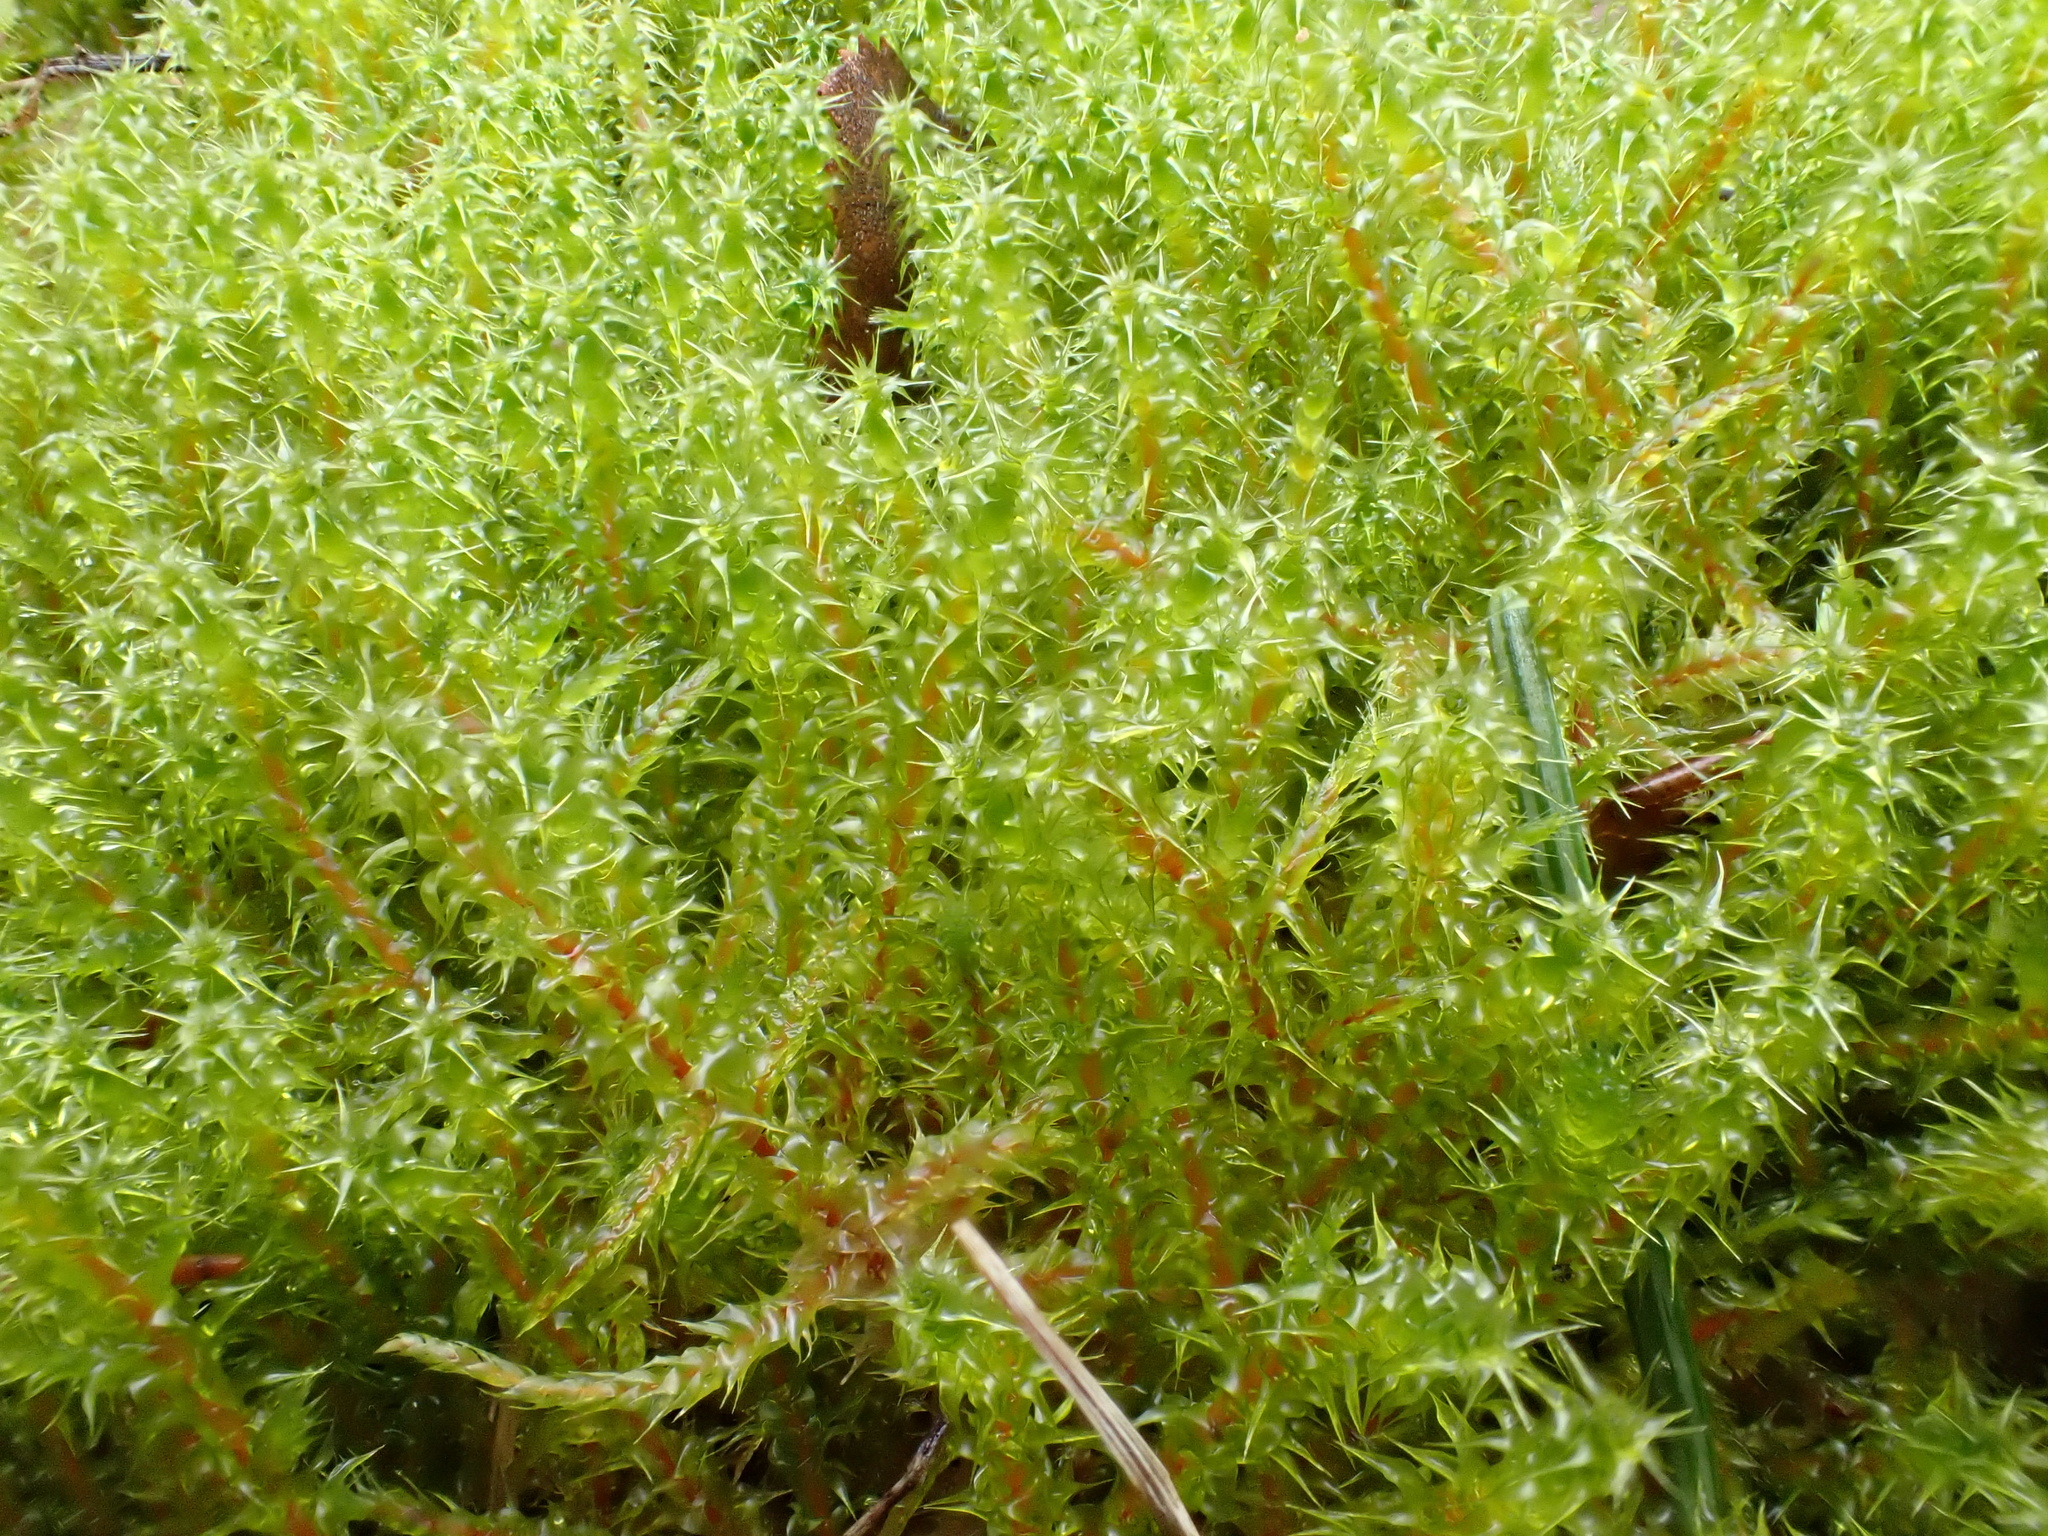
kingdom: Plantae
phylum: Bryophyta
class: Bryopsida
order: Hypnales
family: Hylocomiaceae
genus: Rhytidiadelphus
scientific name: Rhytidiadelphus squarrosus
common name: Springy turf-moss
